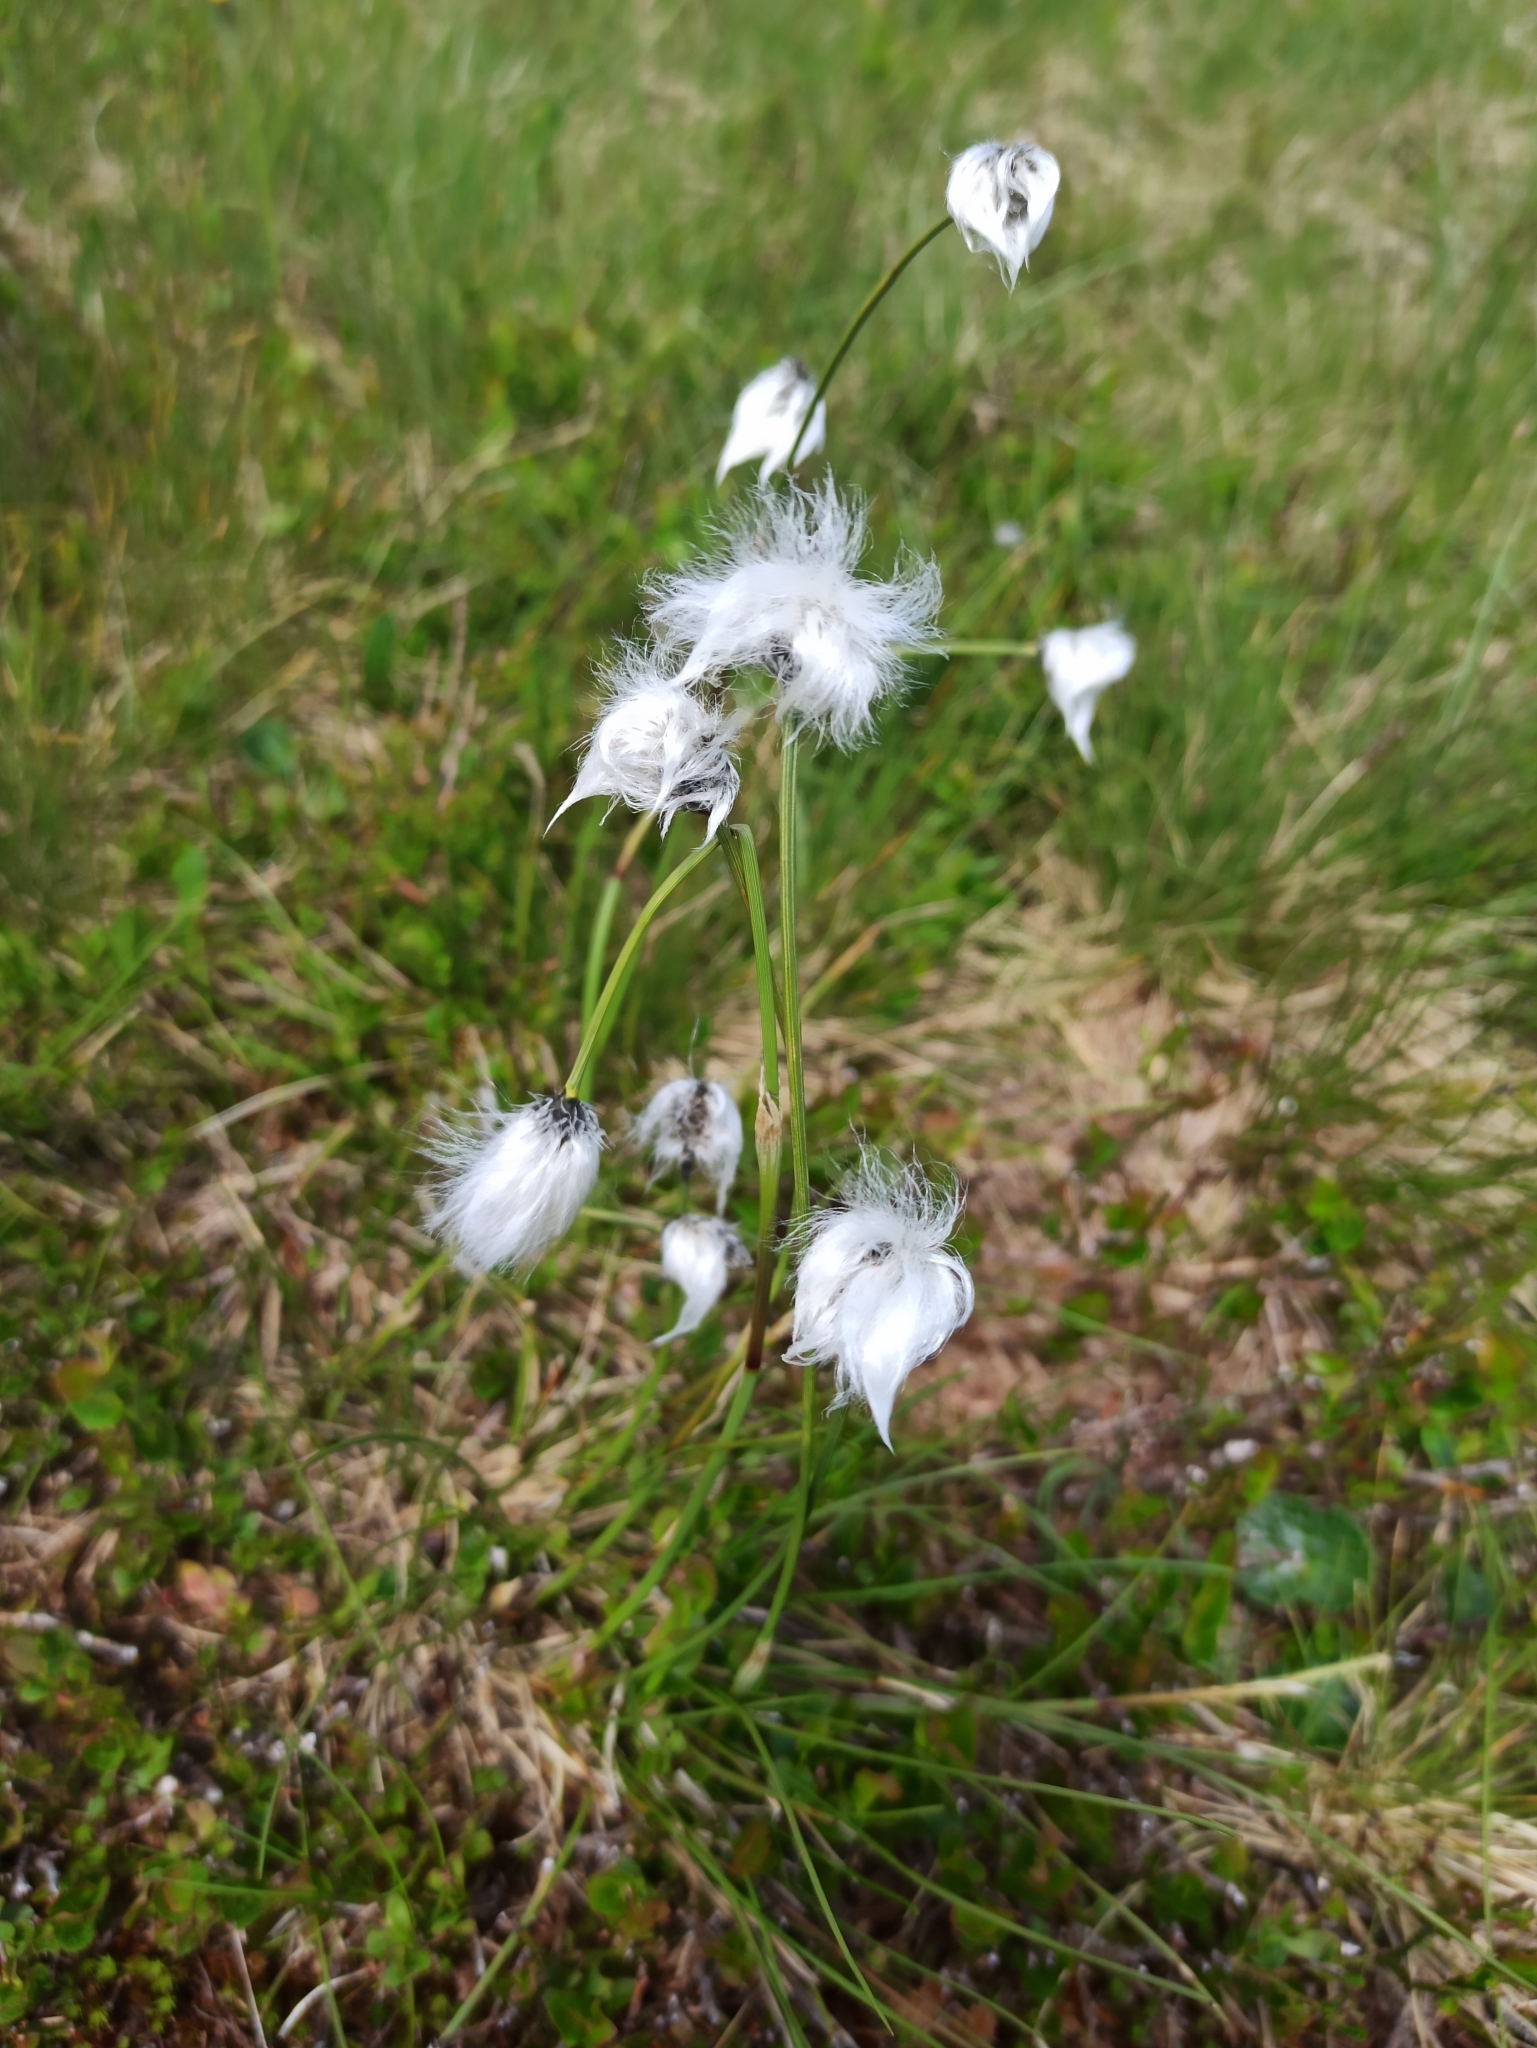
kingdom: Plantae
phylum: Tracheophyta
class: Liliopsida
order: Poales
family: Cyperaceae
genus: Eriophorum
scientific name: Eriophorum vaginatum
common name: Hare's-tail cottongrass
